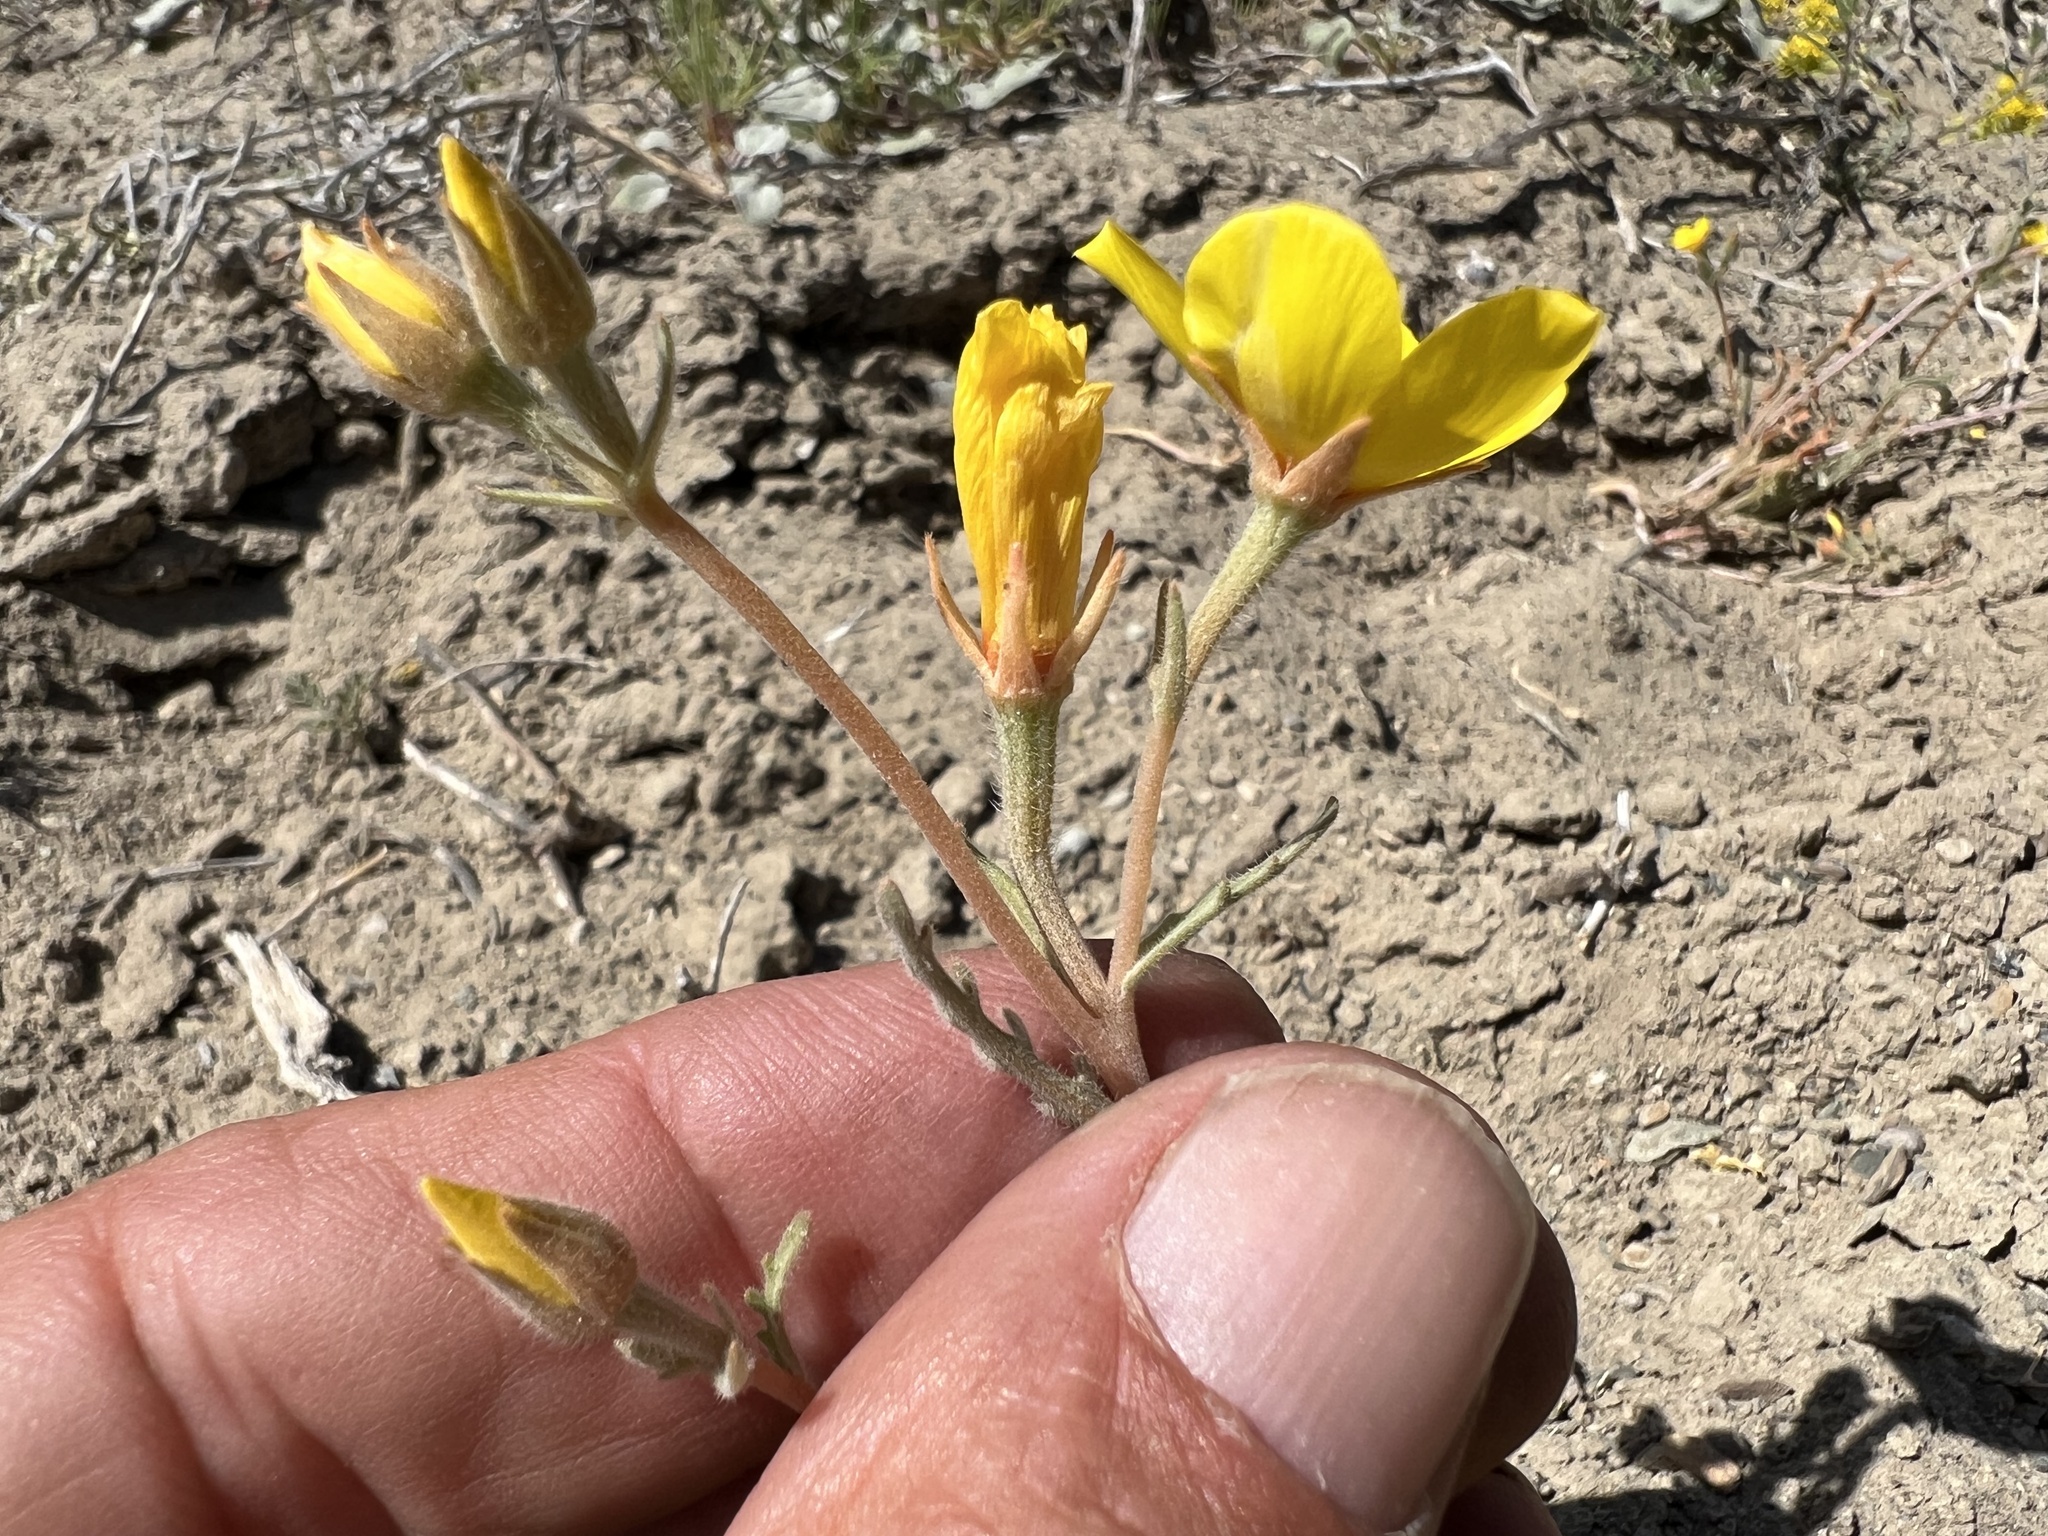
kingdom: Plantae
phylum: Tracheophyta
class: Magnoliopsida
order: Cornales
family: Loasaceae
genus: Mentzelia
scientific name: Mentzelia nitens
